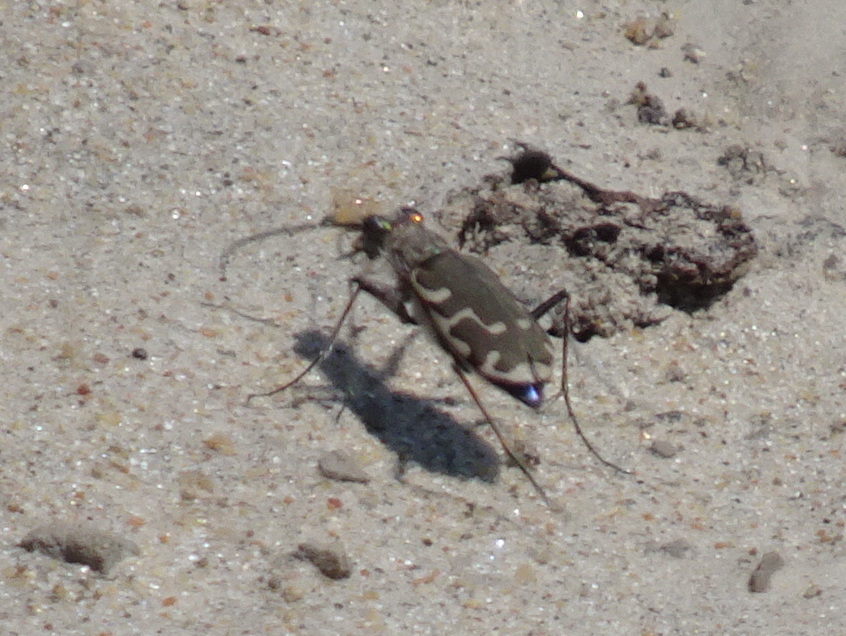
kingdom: Animalia
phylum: Arthropoda
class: Insecta
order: Coleoptera
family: Carabidae
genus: Cicindela
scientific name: Cicindela repanda
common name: Bronzed tiger beetle
